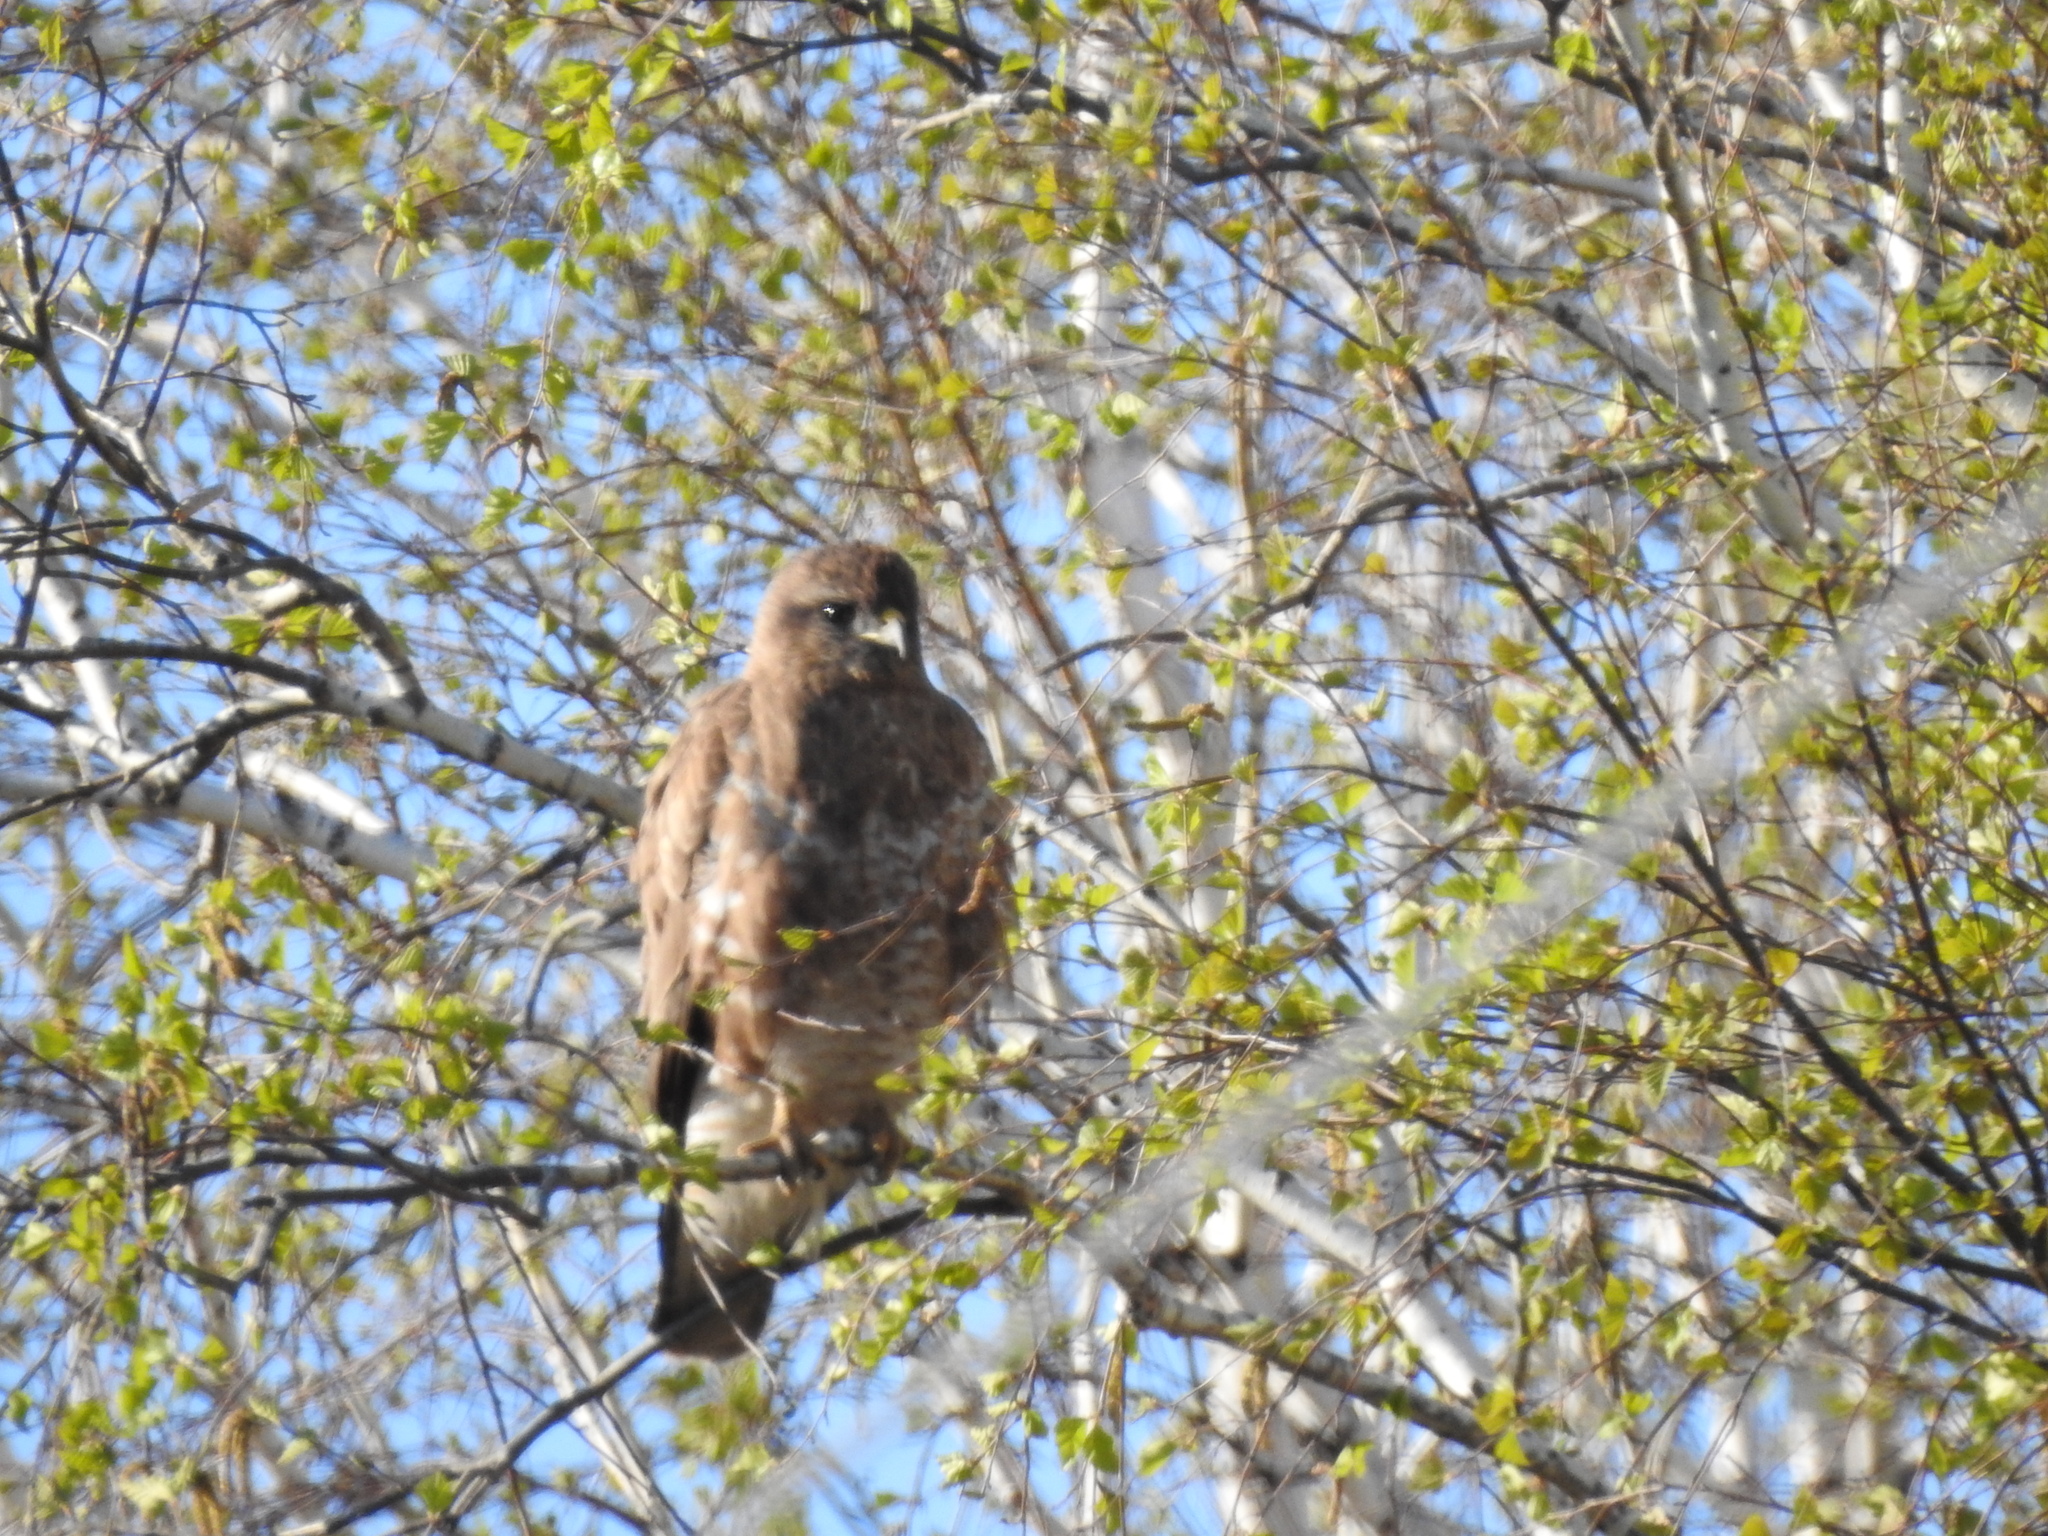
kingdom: Animalia
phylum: Chordata
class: Aves
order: Accipitriformes
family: Accipitridae
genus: Buteo
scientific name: Buteo buteo
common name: Common buzzard
